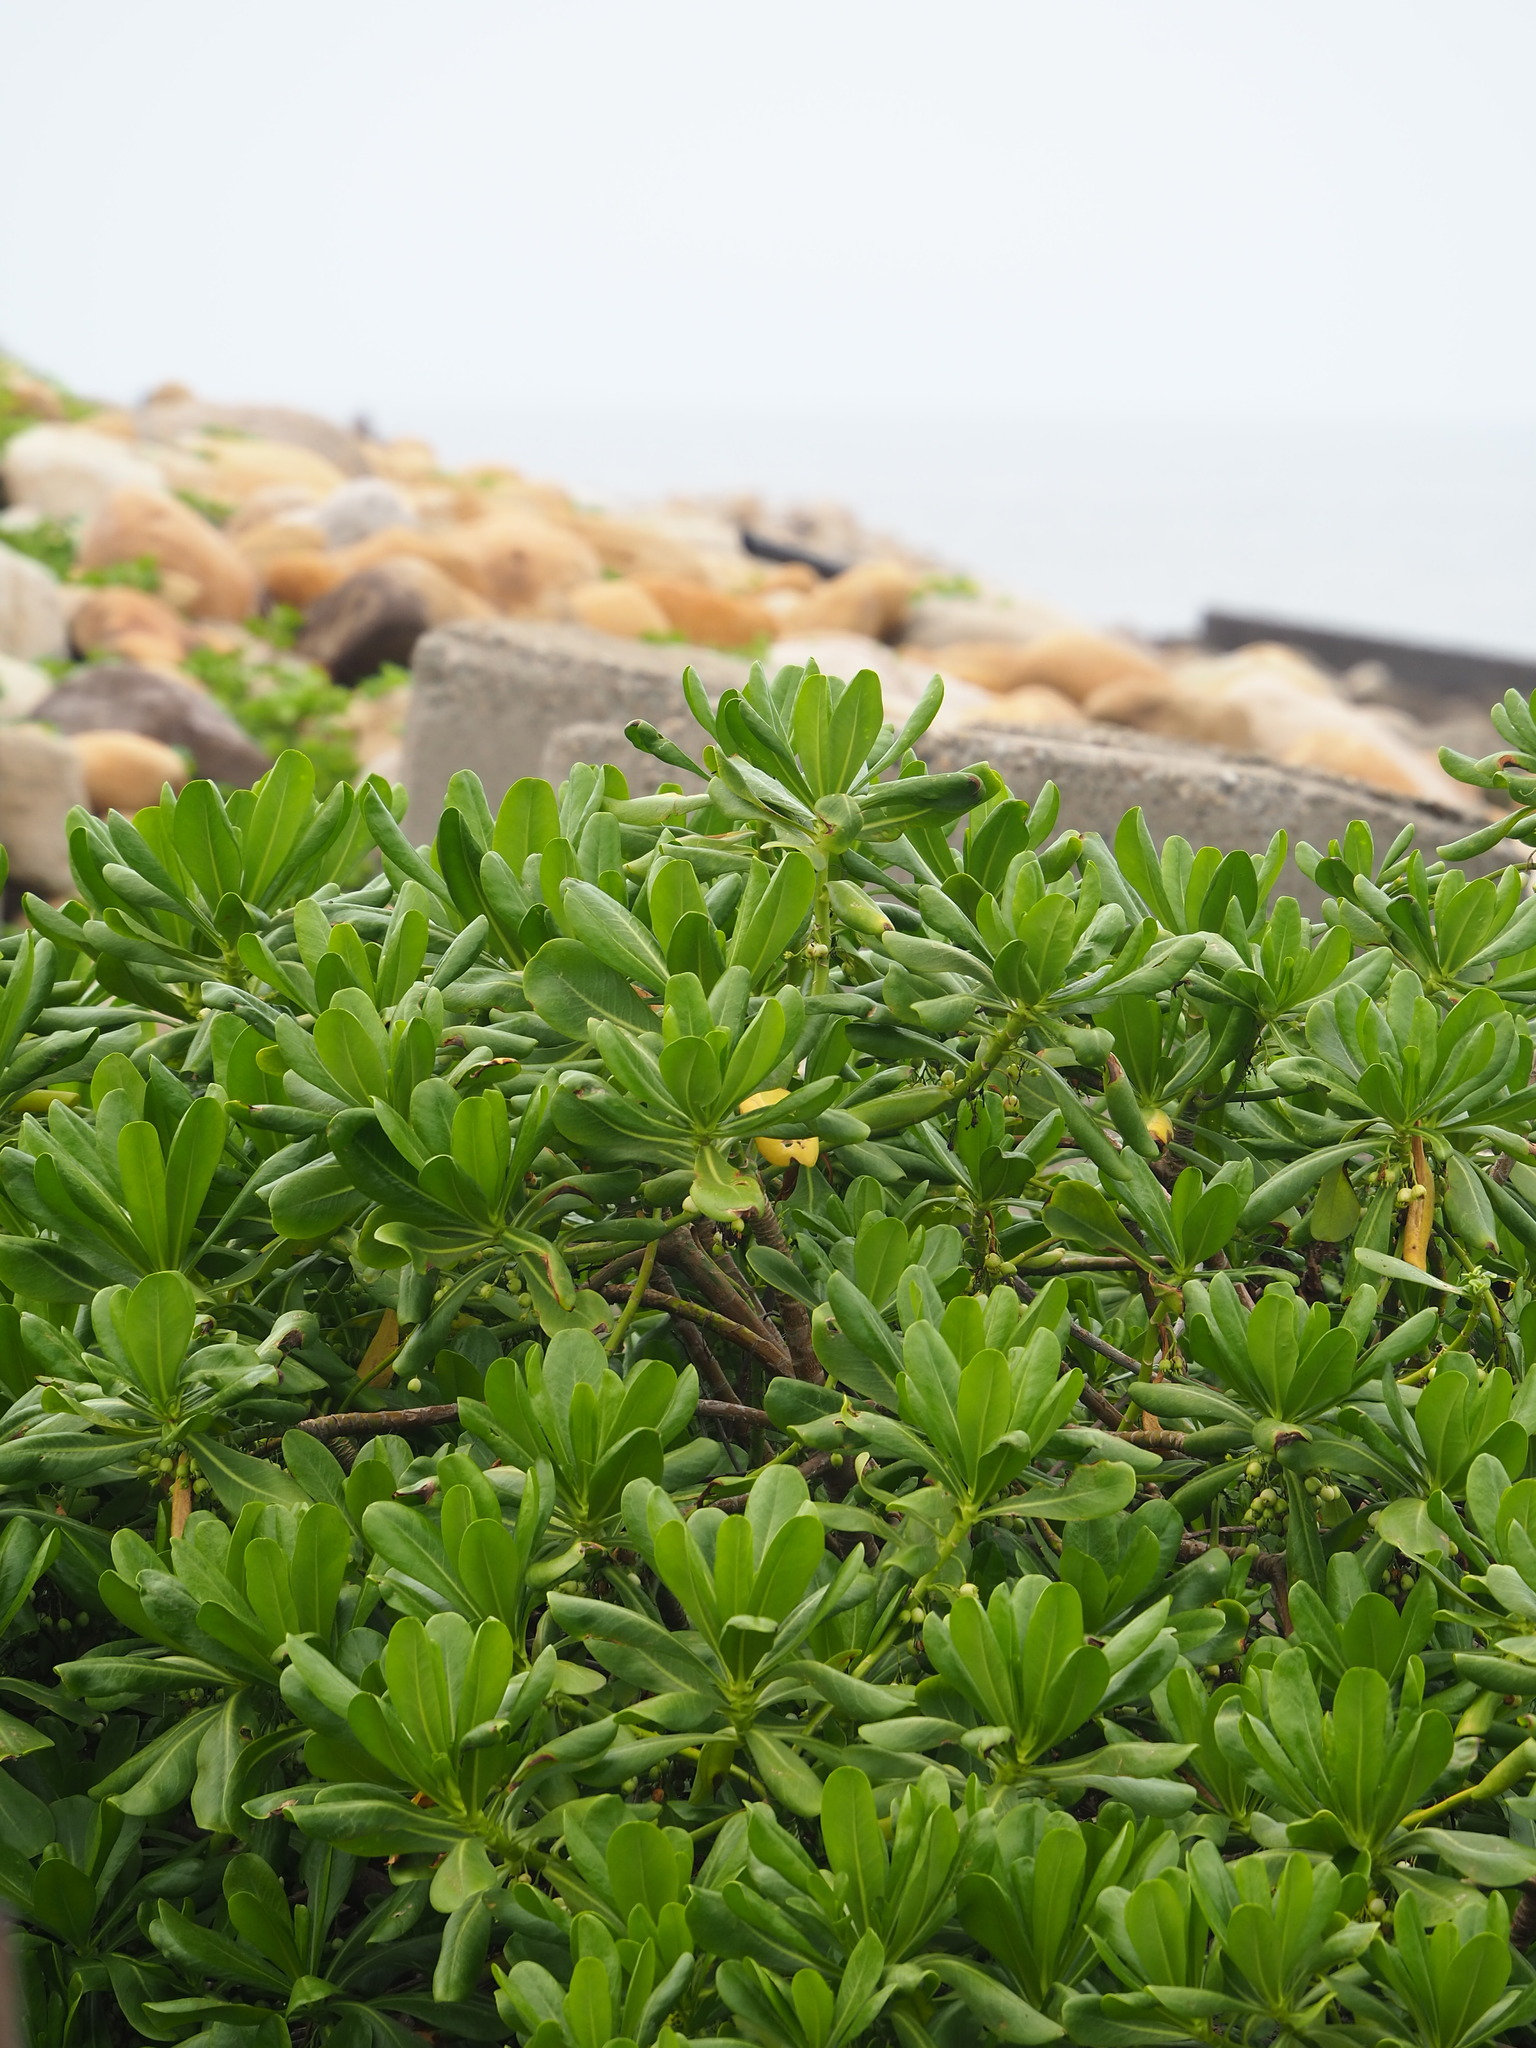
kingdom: Plantae
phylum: Tracheophyta
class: Magnoliopsida
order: Asterales
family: Goodeniaceae
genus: Scaevola
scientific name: Scaevola taccada
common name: Sea lettucetree
